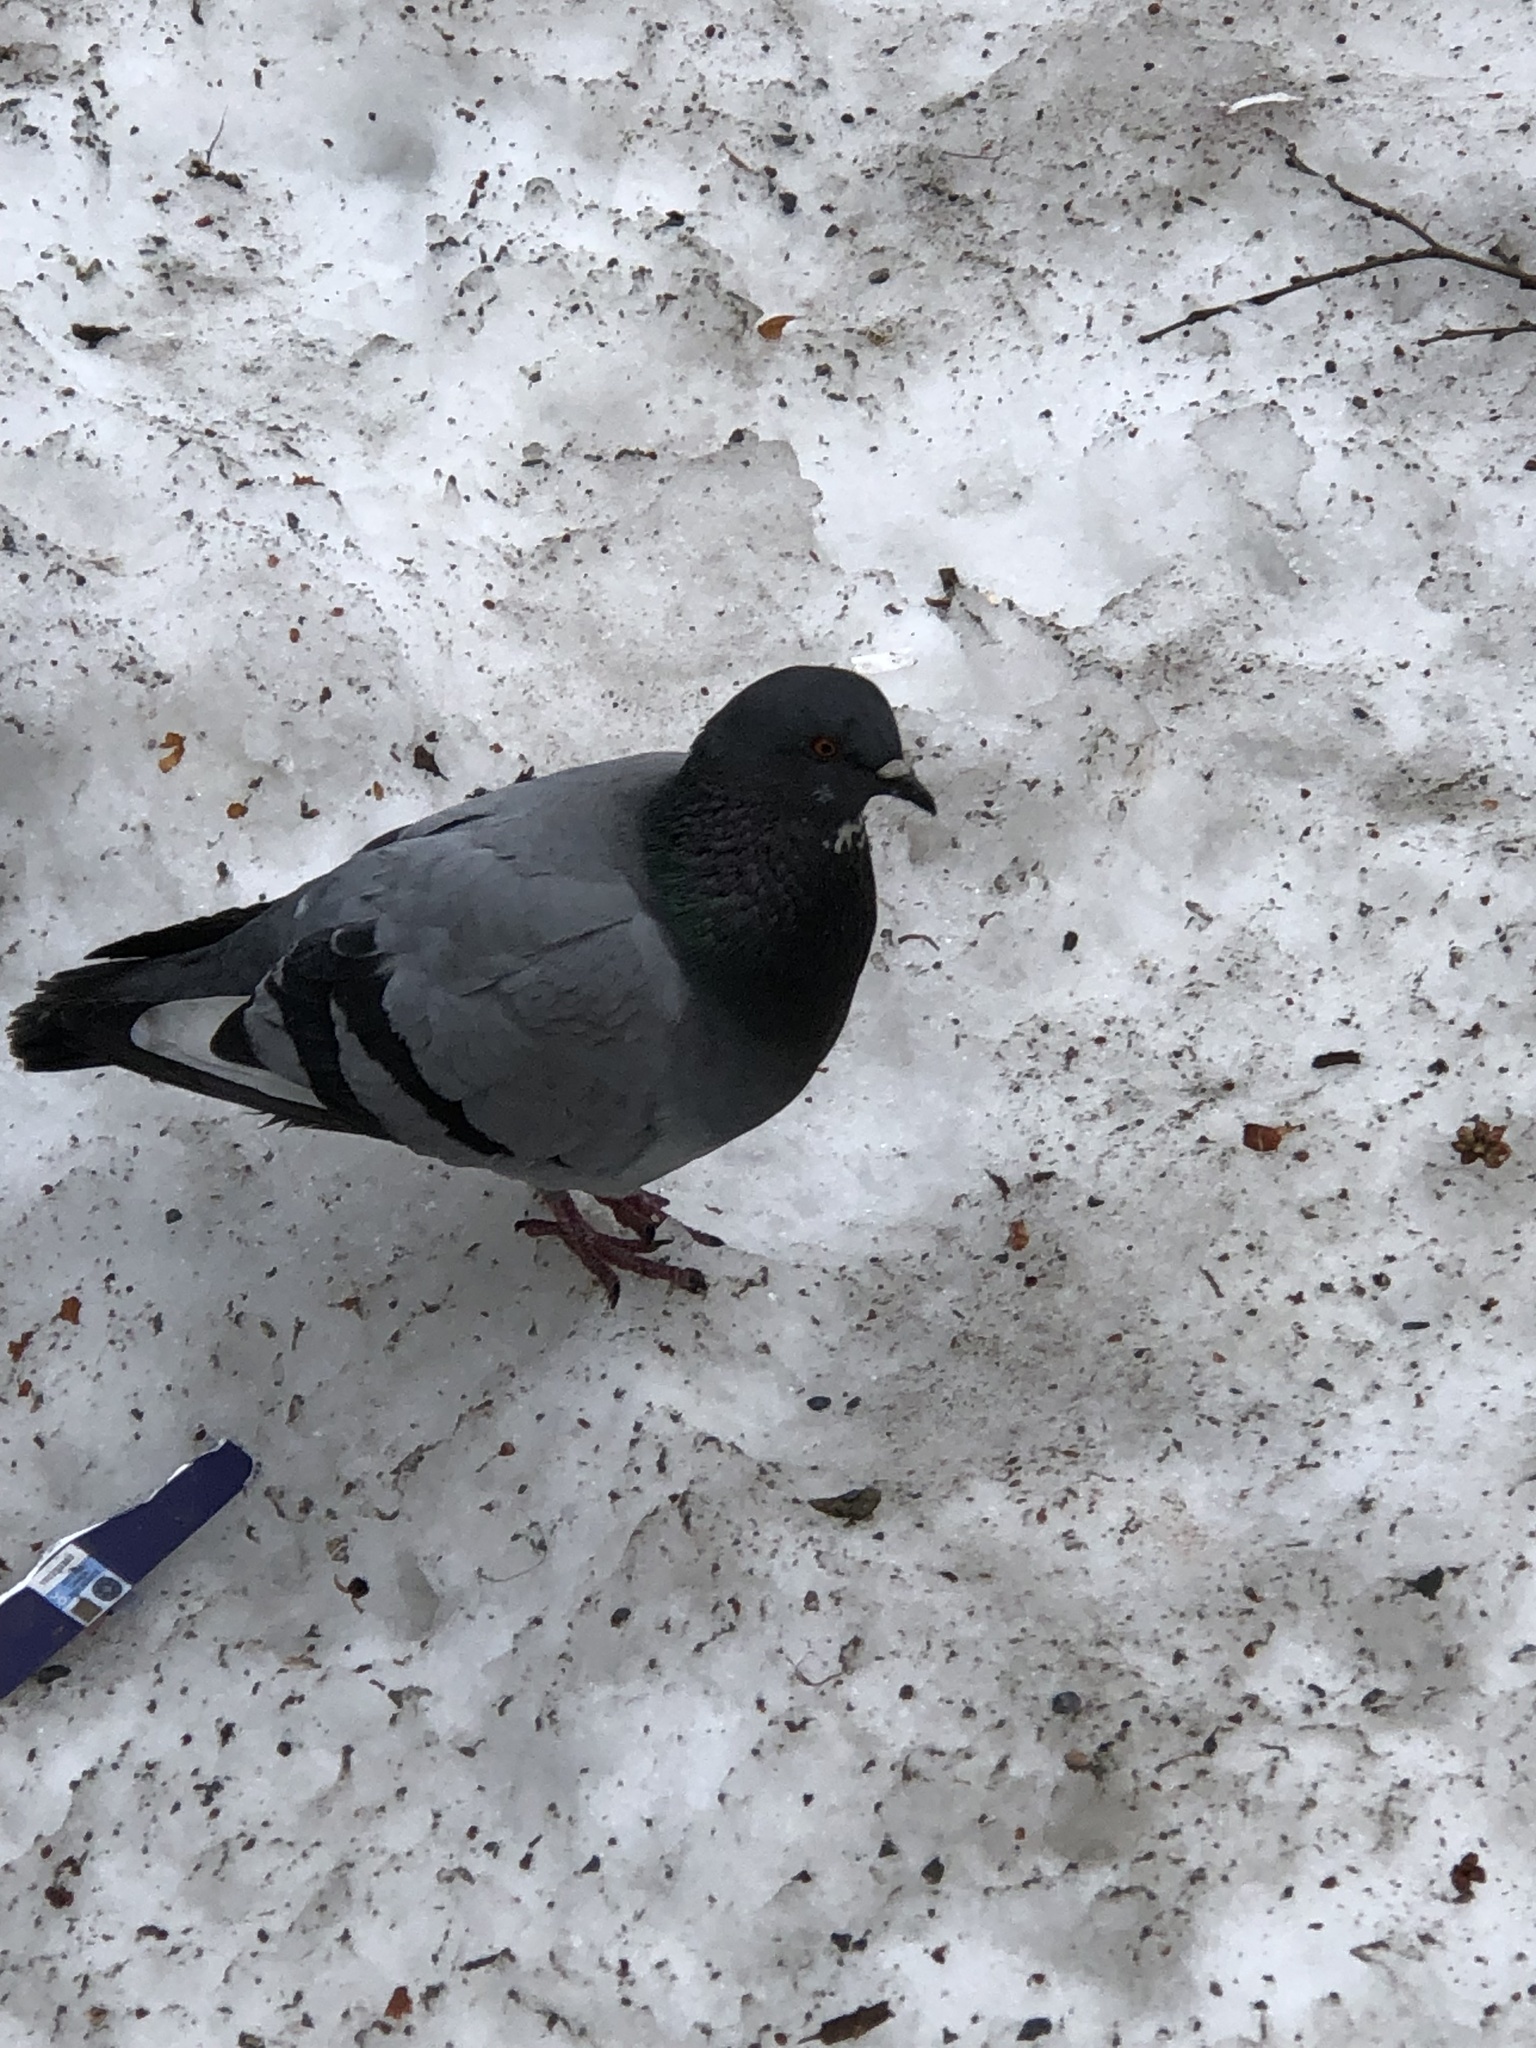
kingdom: Animalia
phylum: Chordata
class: Aves
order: Columbiformes
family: Columbidae
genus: Columba
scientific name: Columba livia
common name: Rock pigeon
